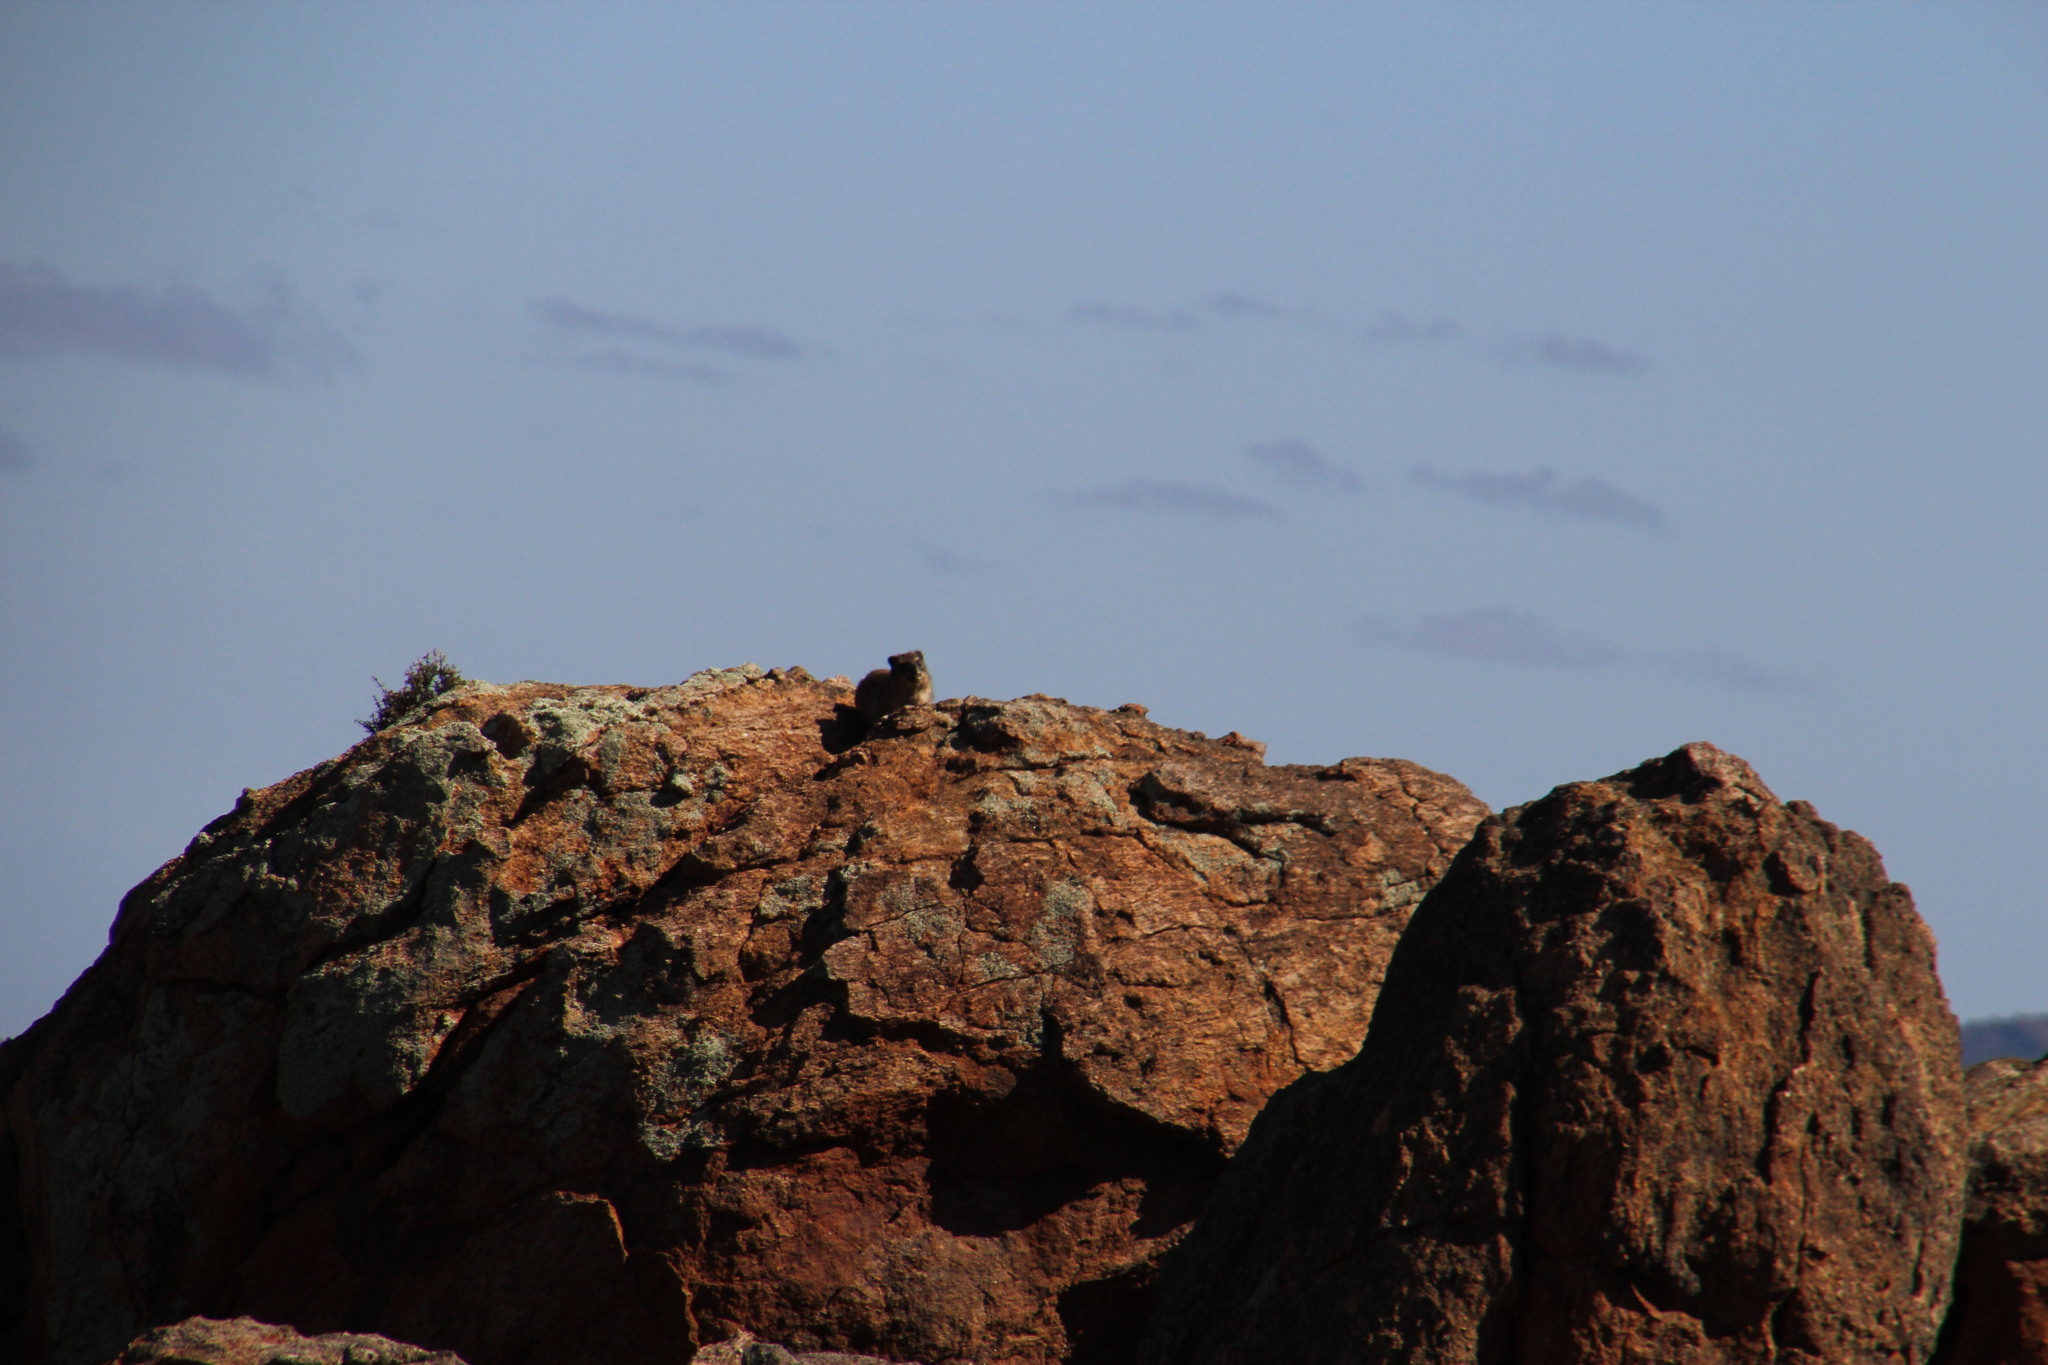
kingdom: Animalia
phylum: Chordata
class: Mammalia
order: Hyracoidea
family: Procaviidae
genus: Procavia
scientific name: Procavia capensis
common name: Rock hyrax
